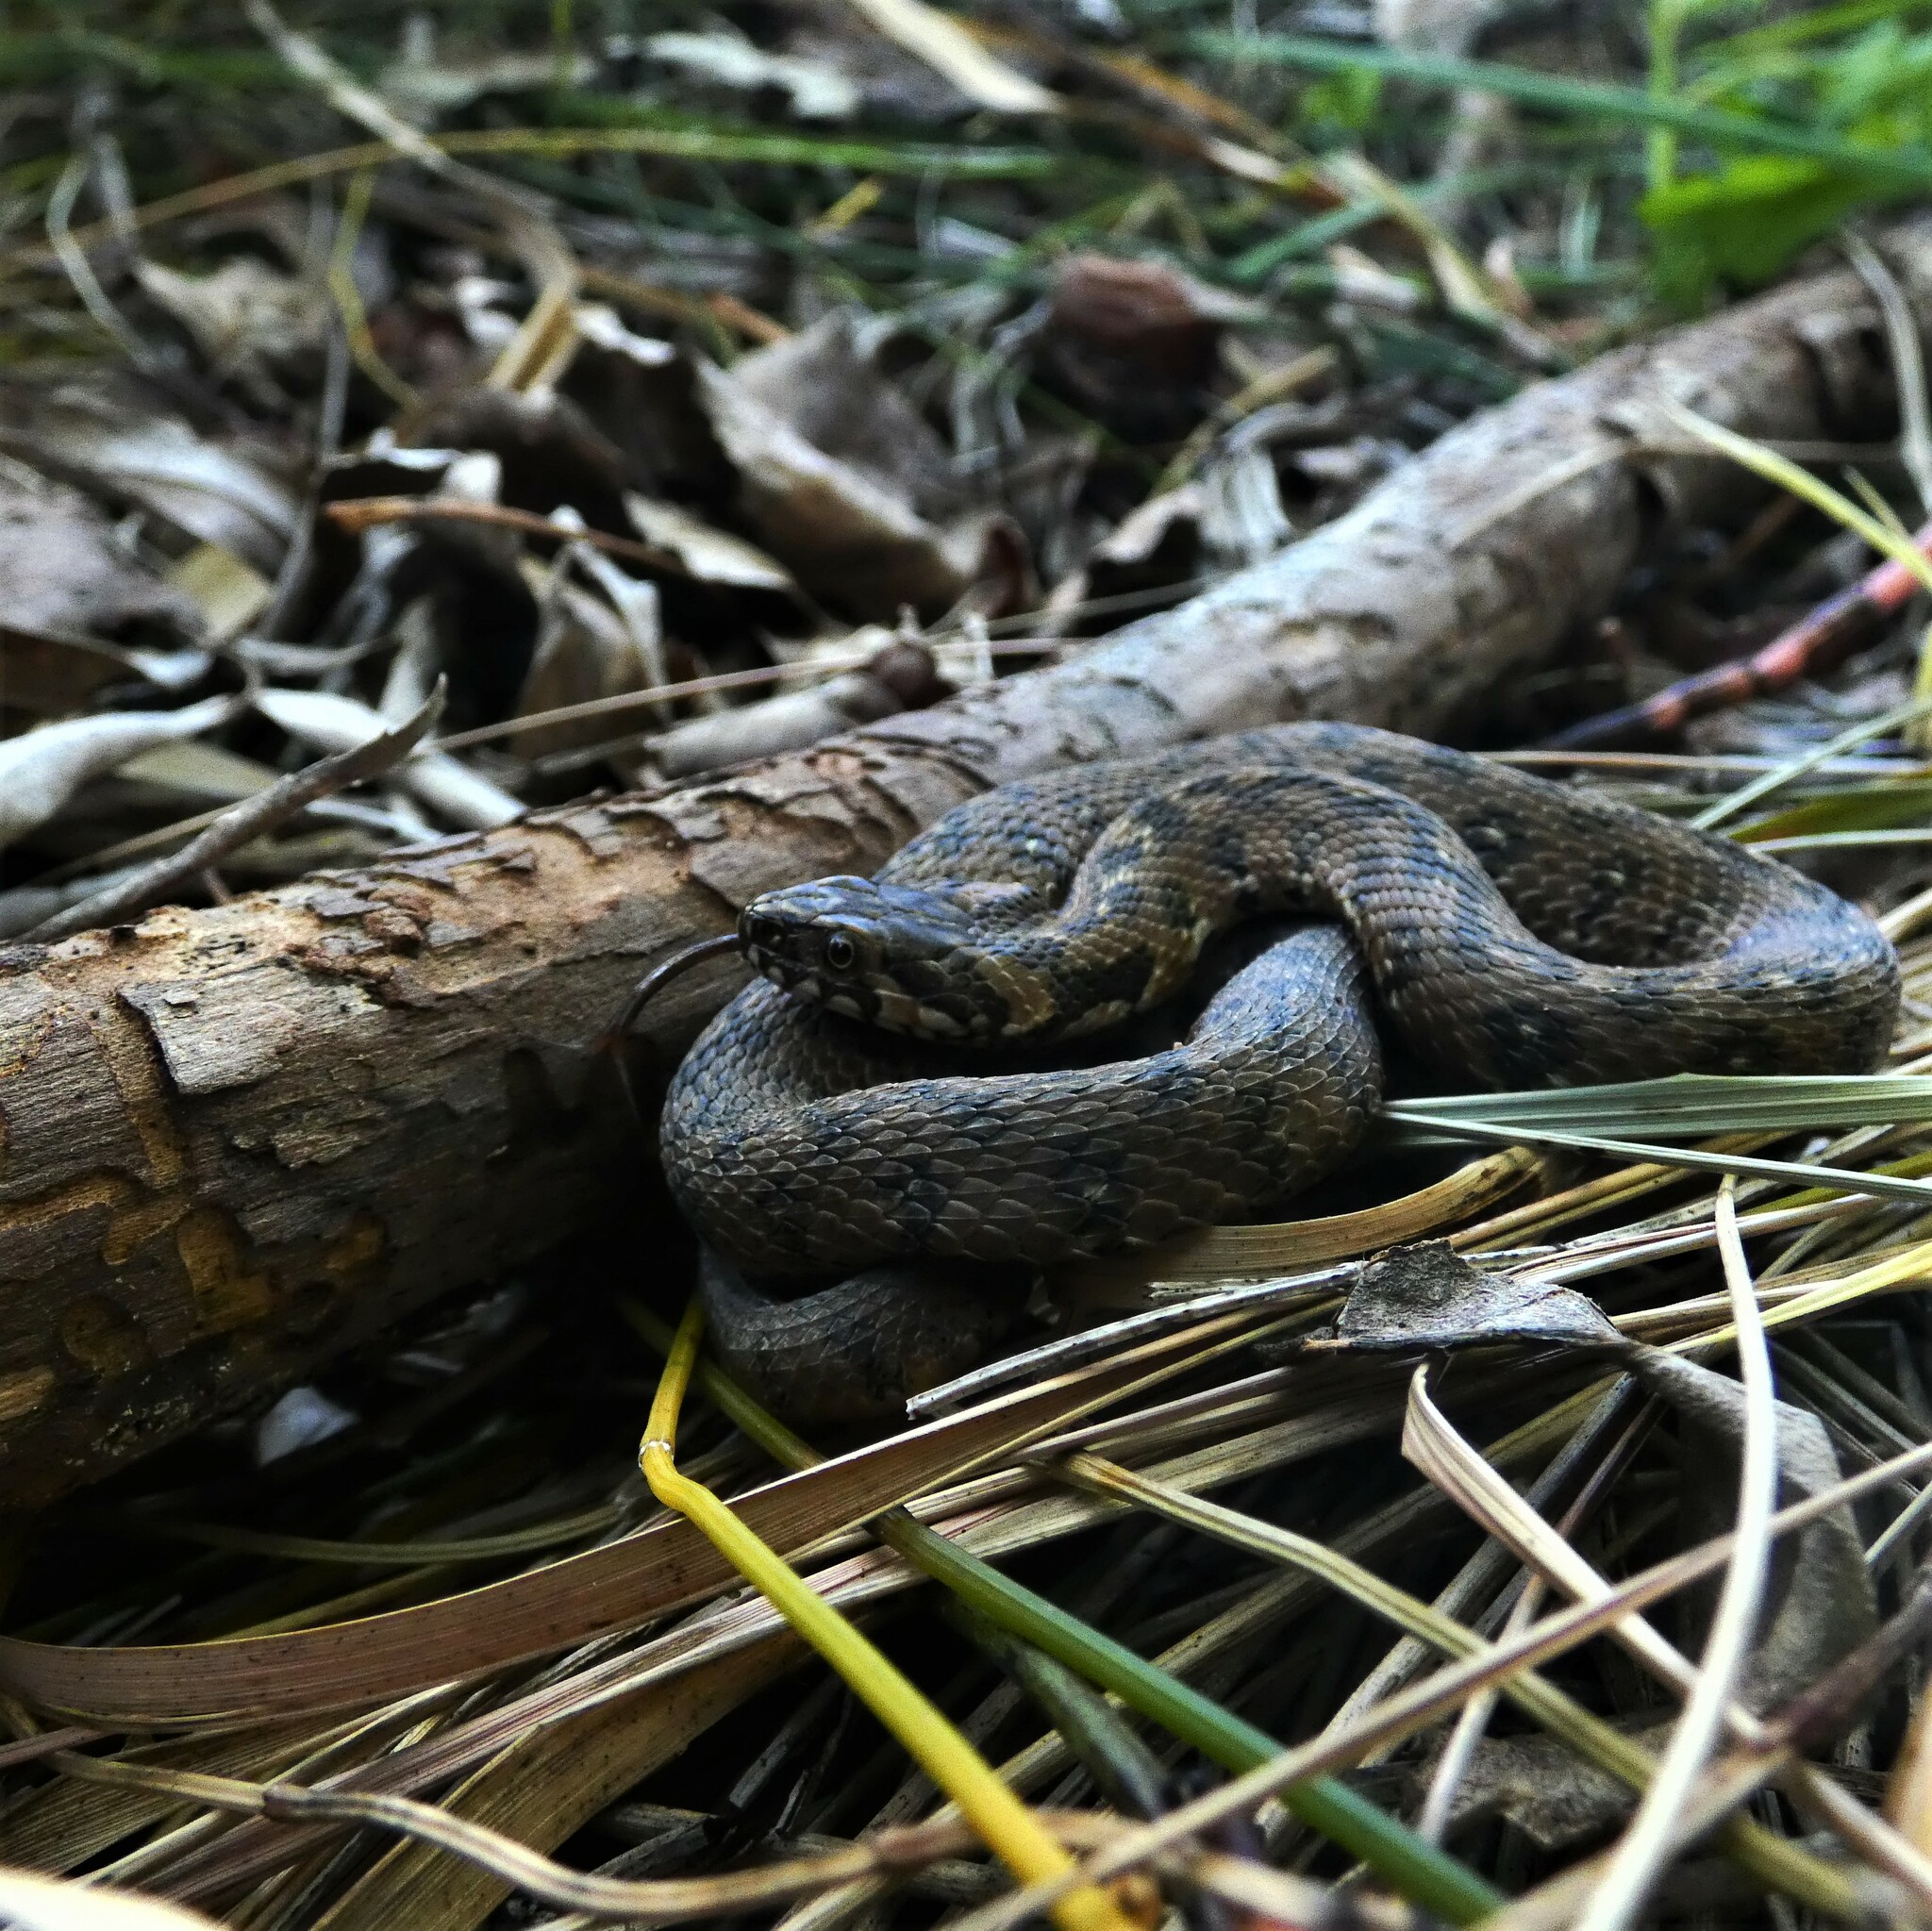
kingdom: Animalia
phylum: Chordata
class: Squamata
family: Colubridae
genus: Natrix
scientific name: Natrix maura
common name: Viperine water snake
